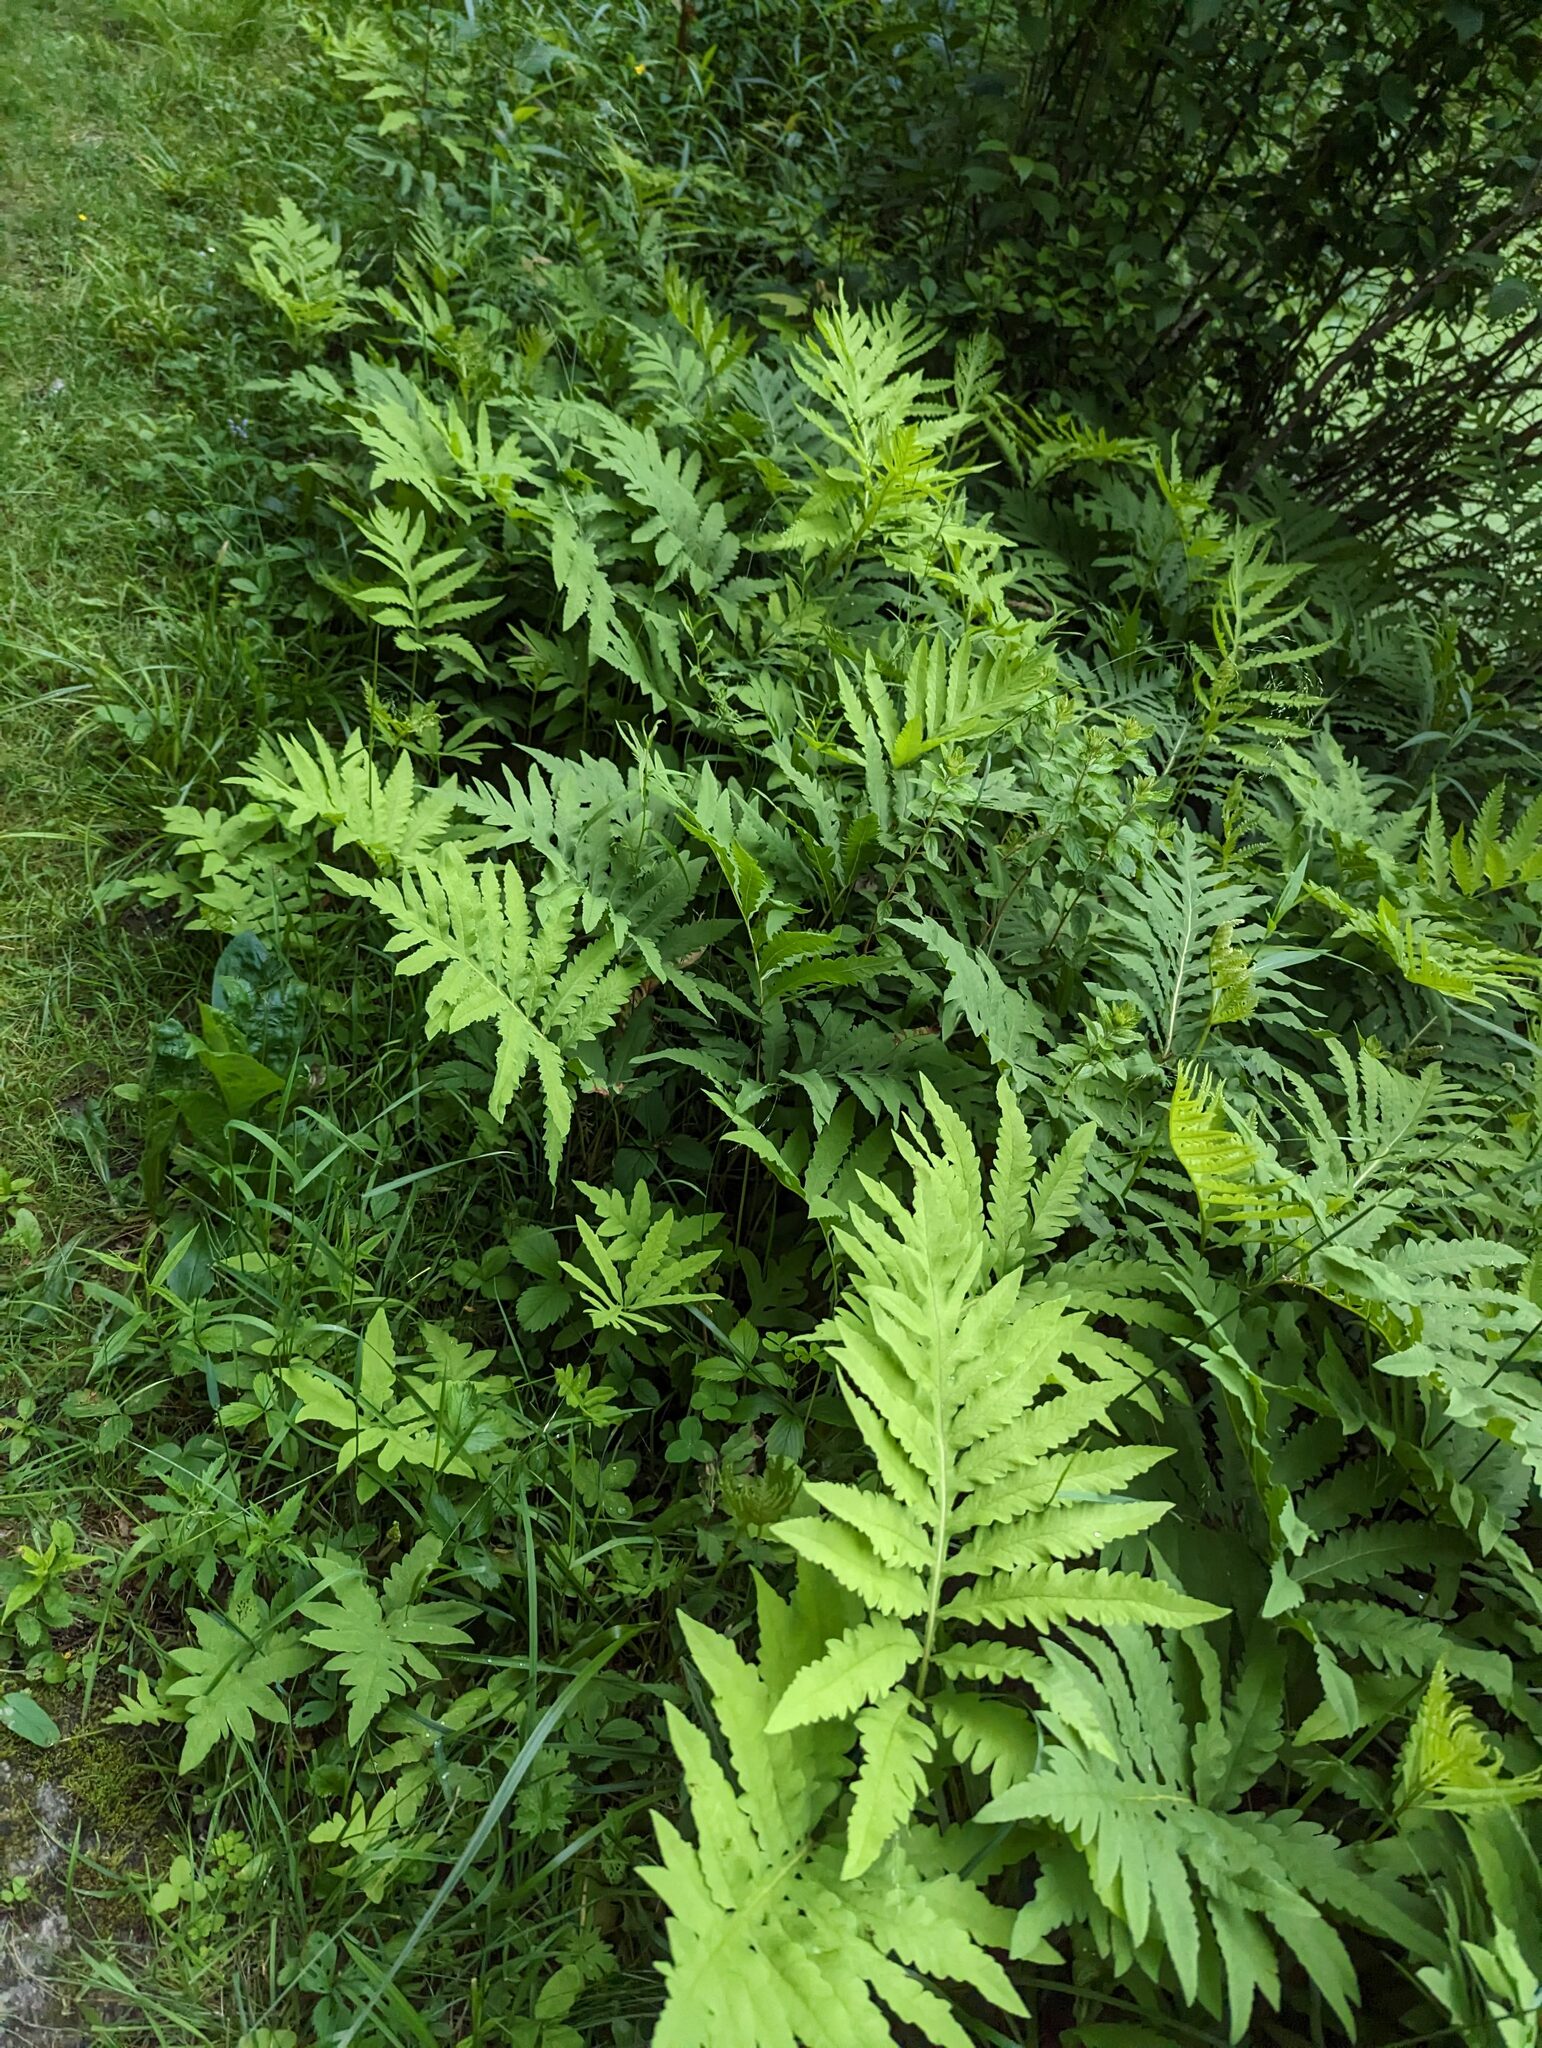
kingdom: Plantae
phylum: Tracheophyta
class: Polypodiopsida
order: Polypodiales
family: Onocleaceae
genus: Onoclea
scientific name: Onoclea sensibilis
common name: Sensitive fern
